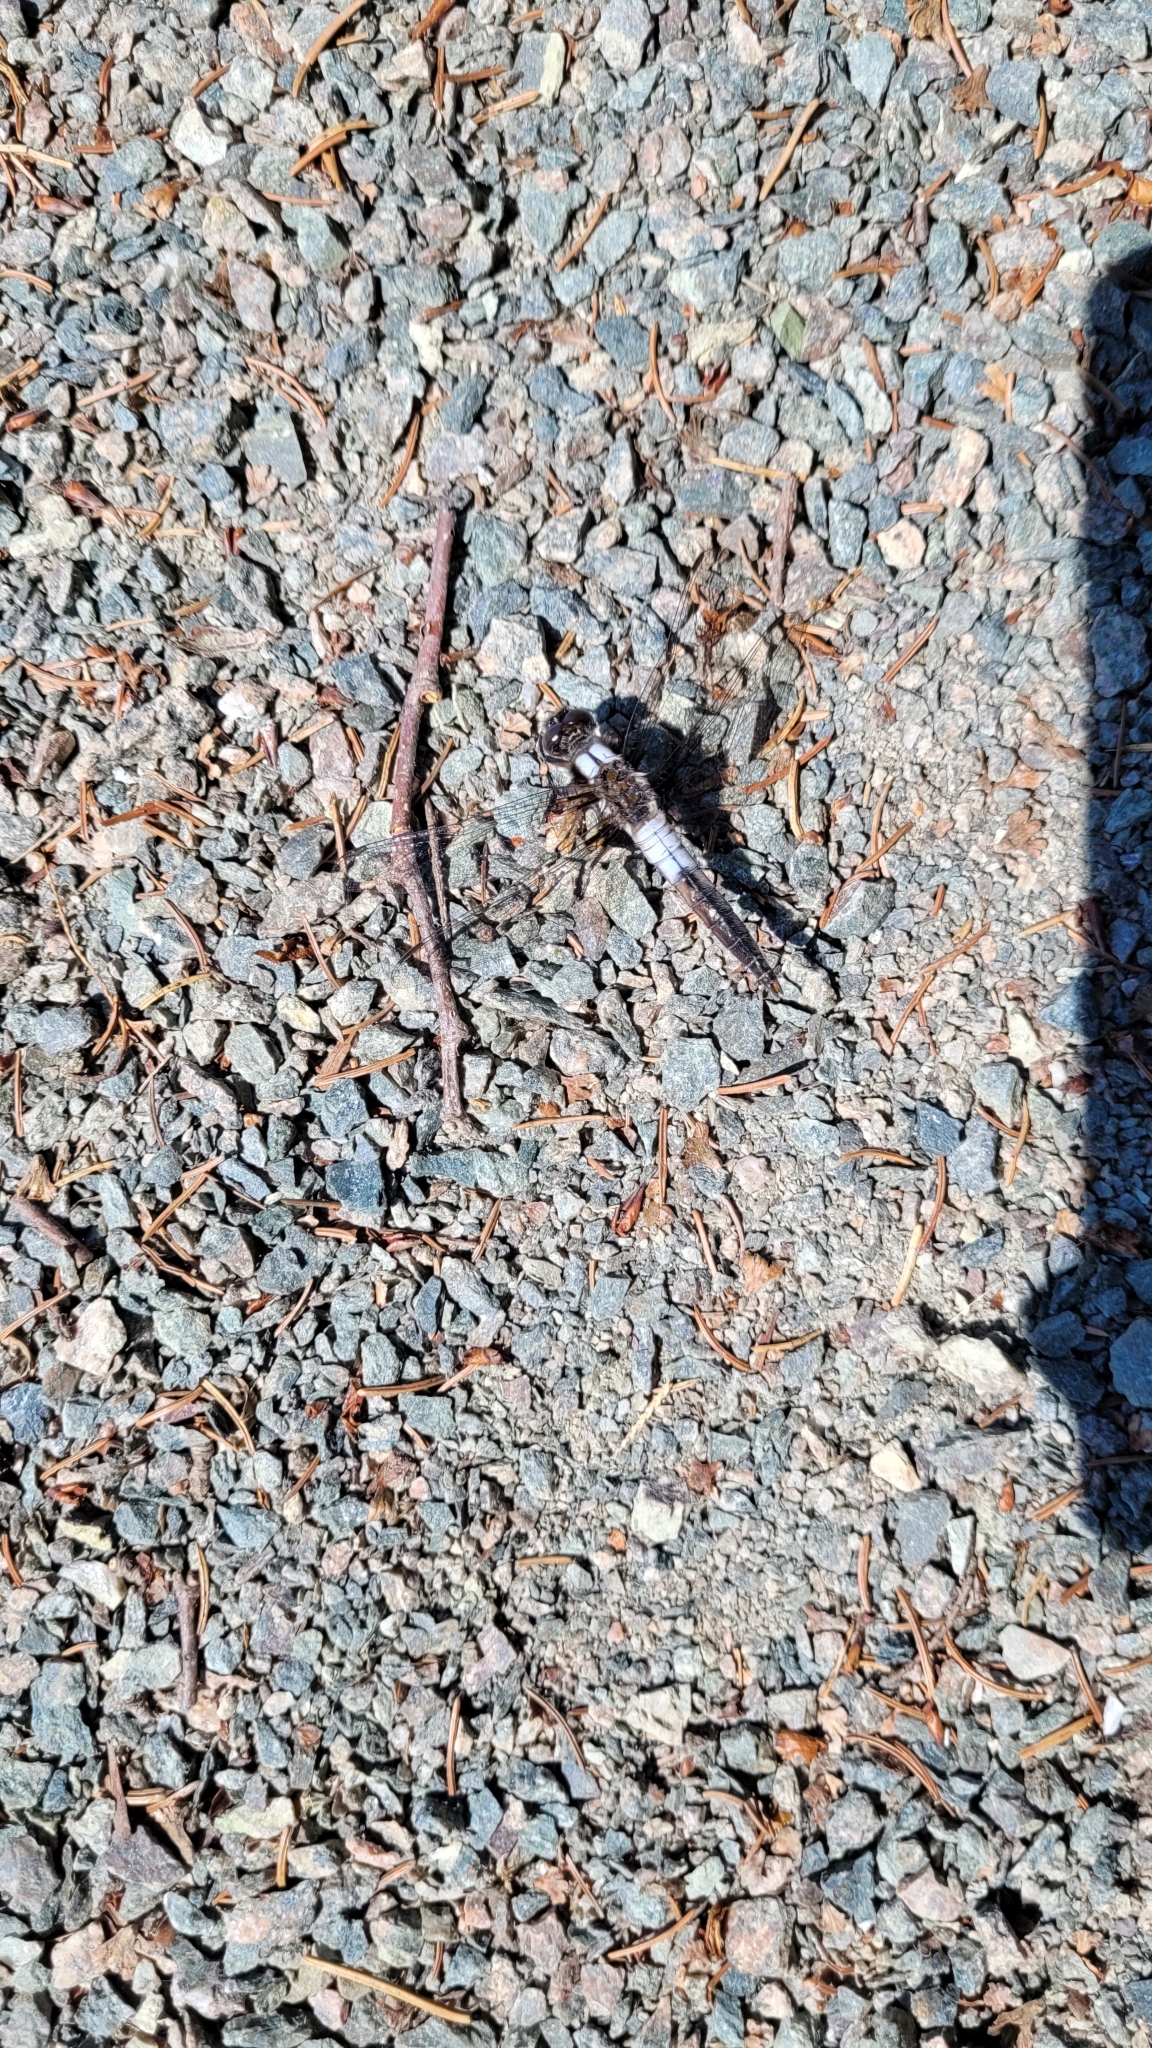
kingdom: Animalia
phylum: Arthropoda
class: Insecta
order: Odonata
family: Libellulidae
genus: Ladona
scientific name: Ladona julia
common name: Chalk-fronted corporal
